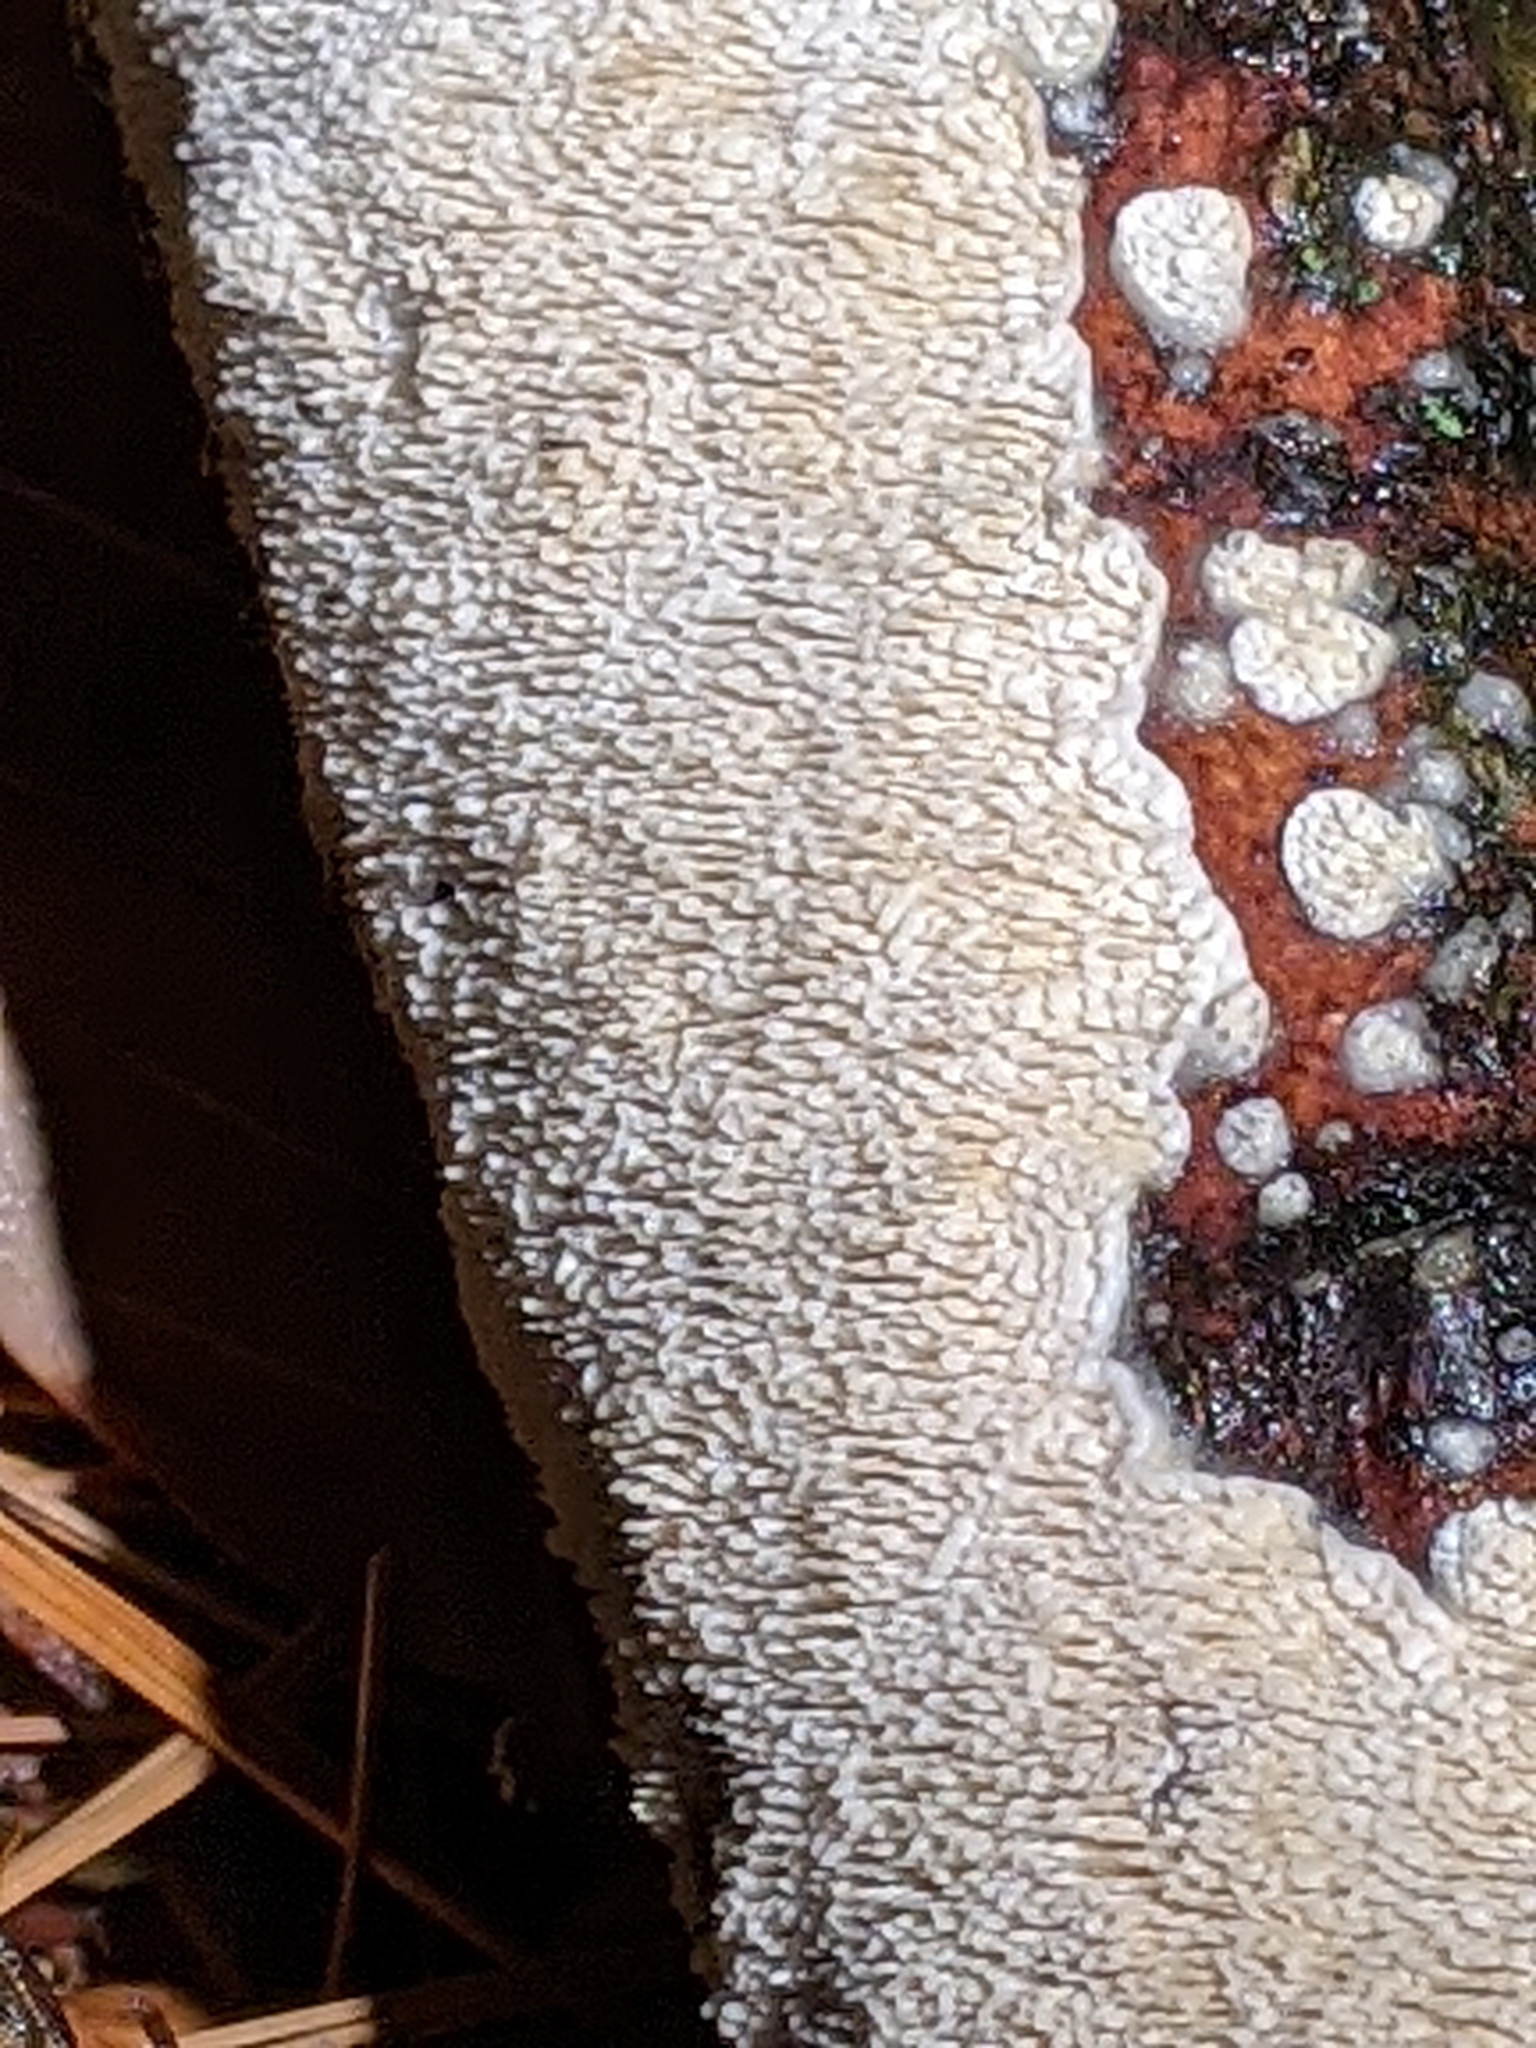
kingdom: Fungi
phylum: Basidiomycota
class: Agaricomycetes
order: Polyporales
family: Irpicaceae
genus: Irpex
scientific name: Irpex lacteus
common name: Milk-white toothed polypore
